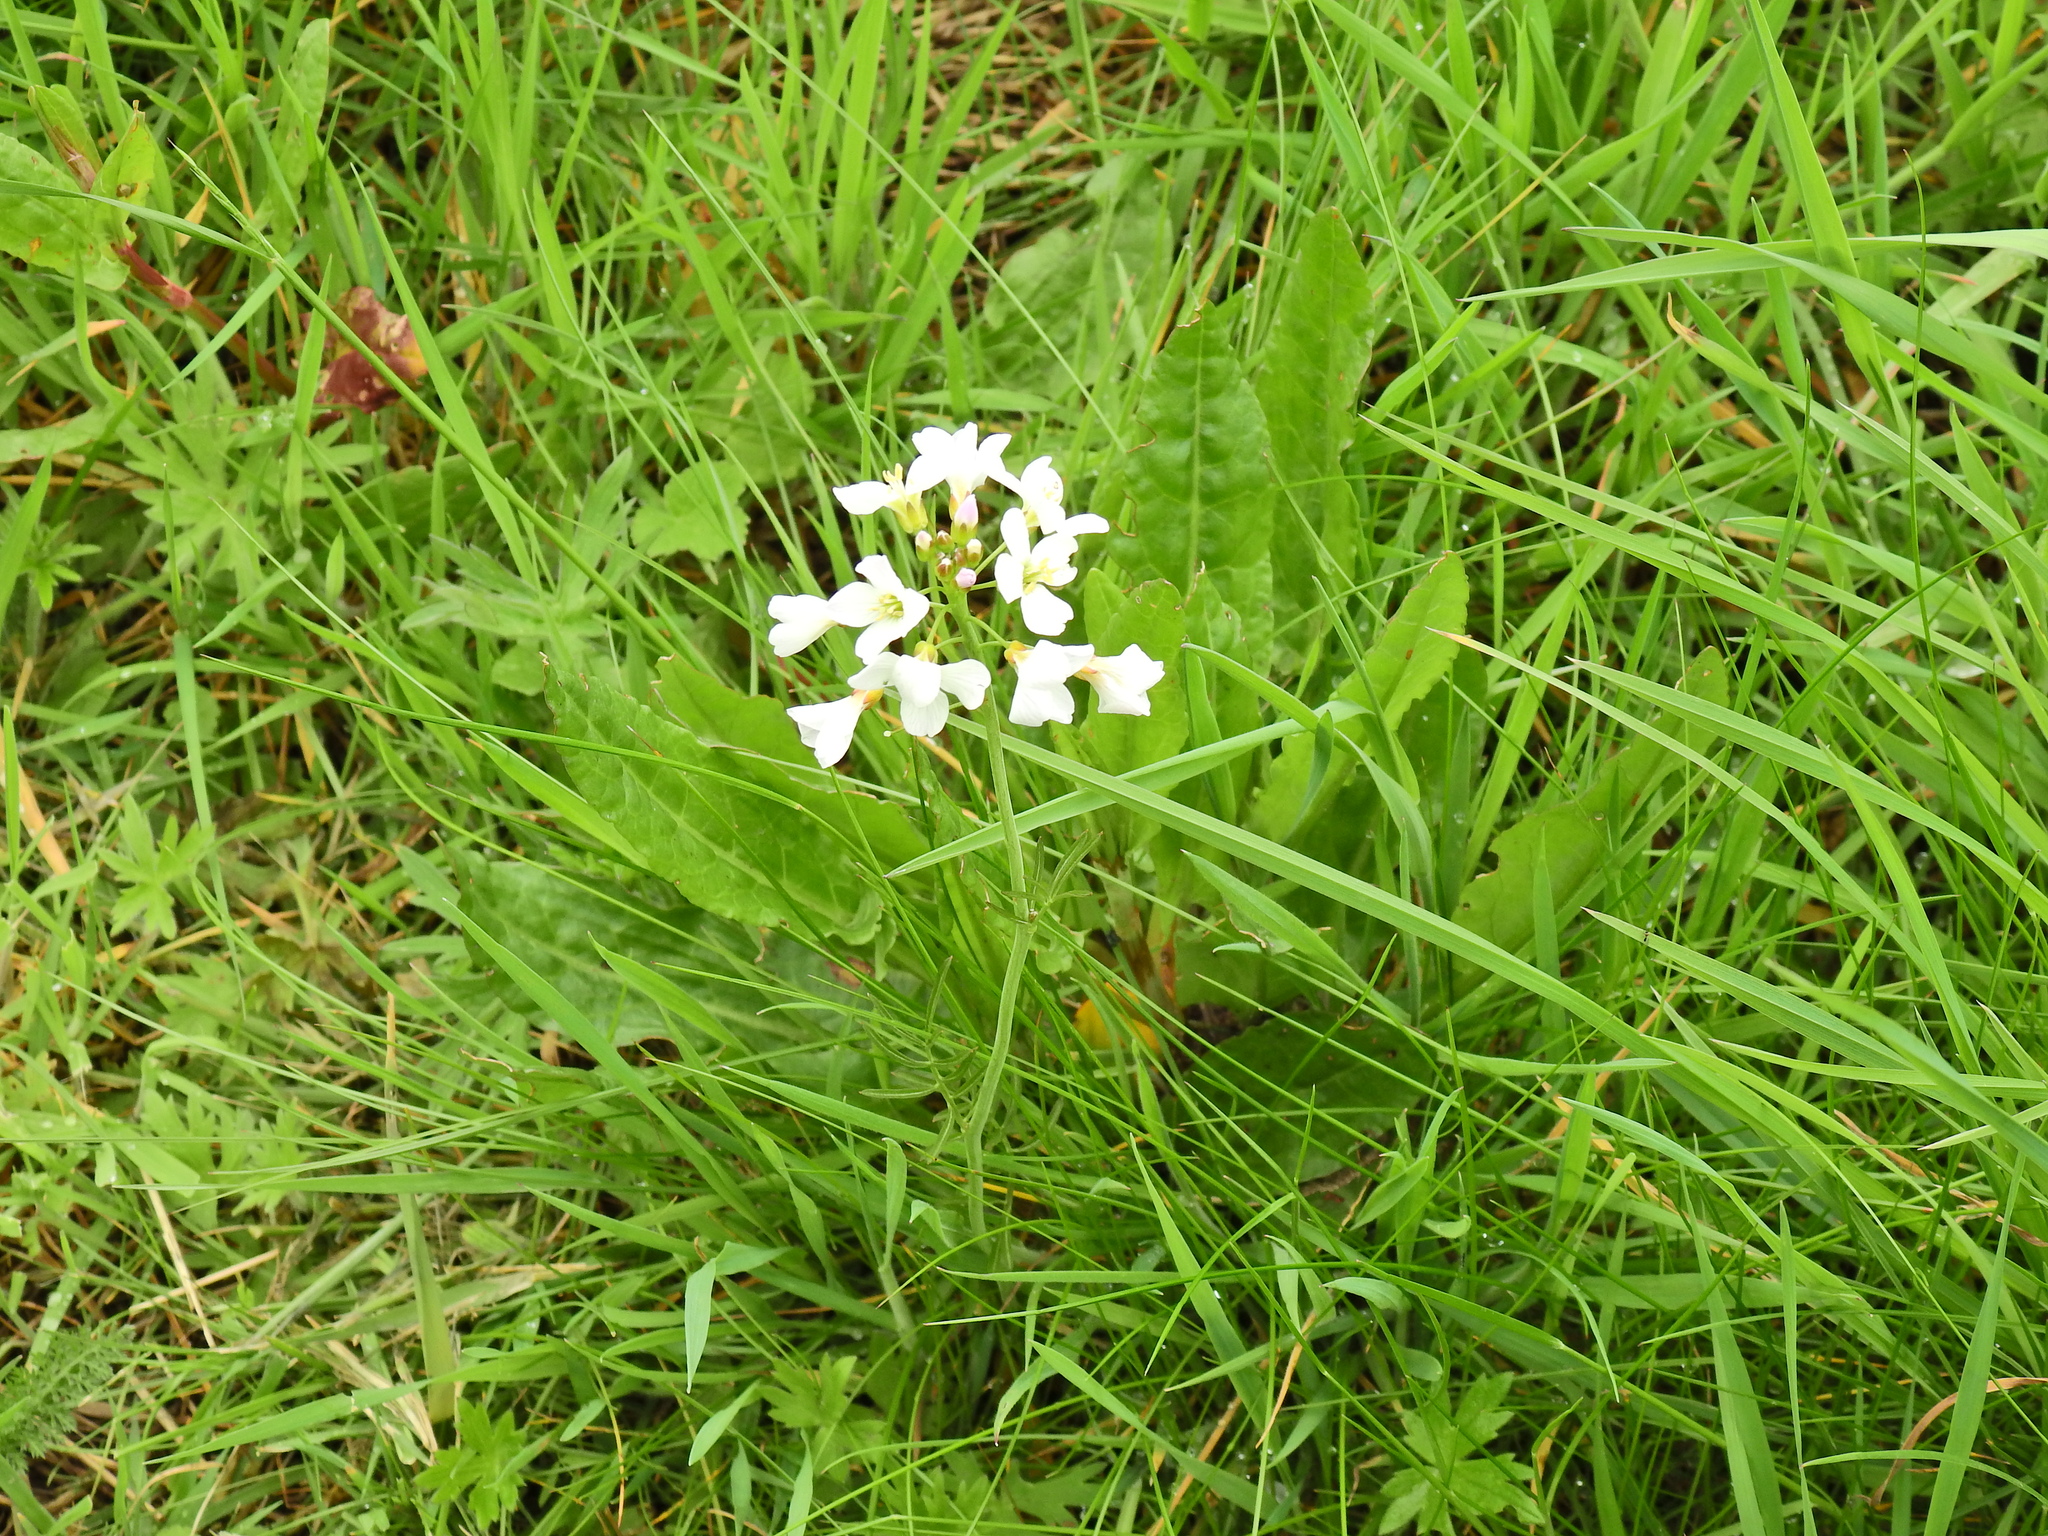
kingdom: Plantae
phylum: Tracheophyta
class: Magnoliopsida
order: Brassicales
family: Brassicaceae
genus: Cardamine
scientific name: Cardamine pratensis
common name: Cuckoo flower
